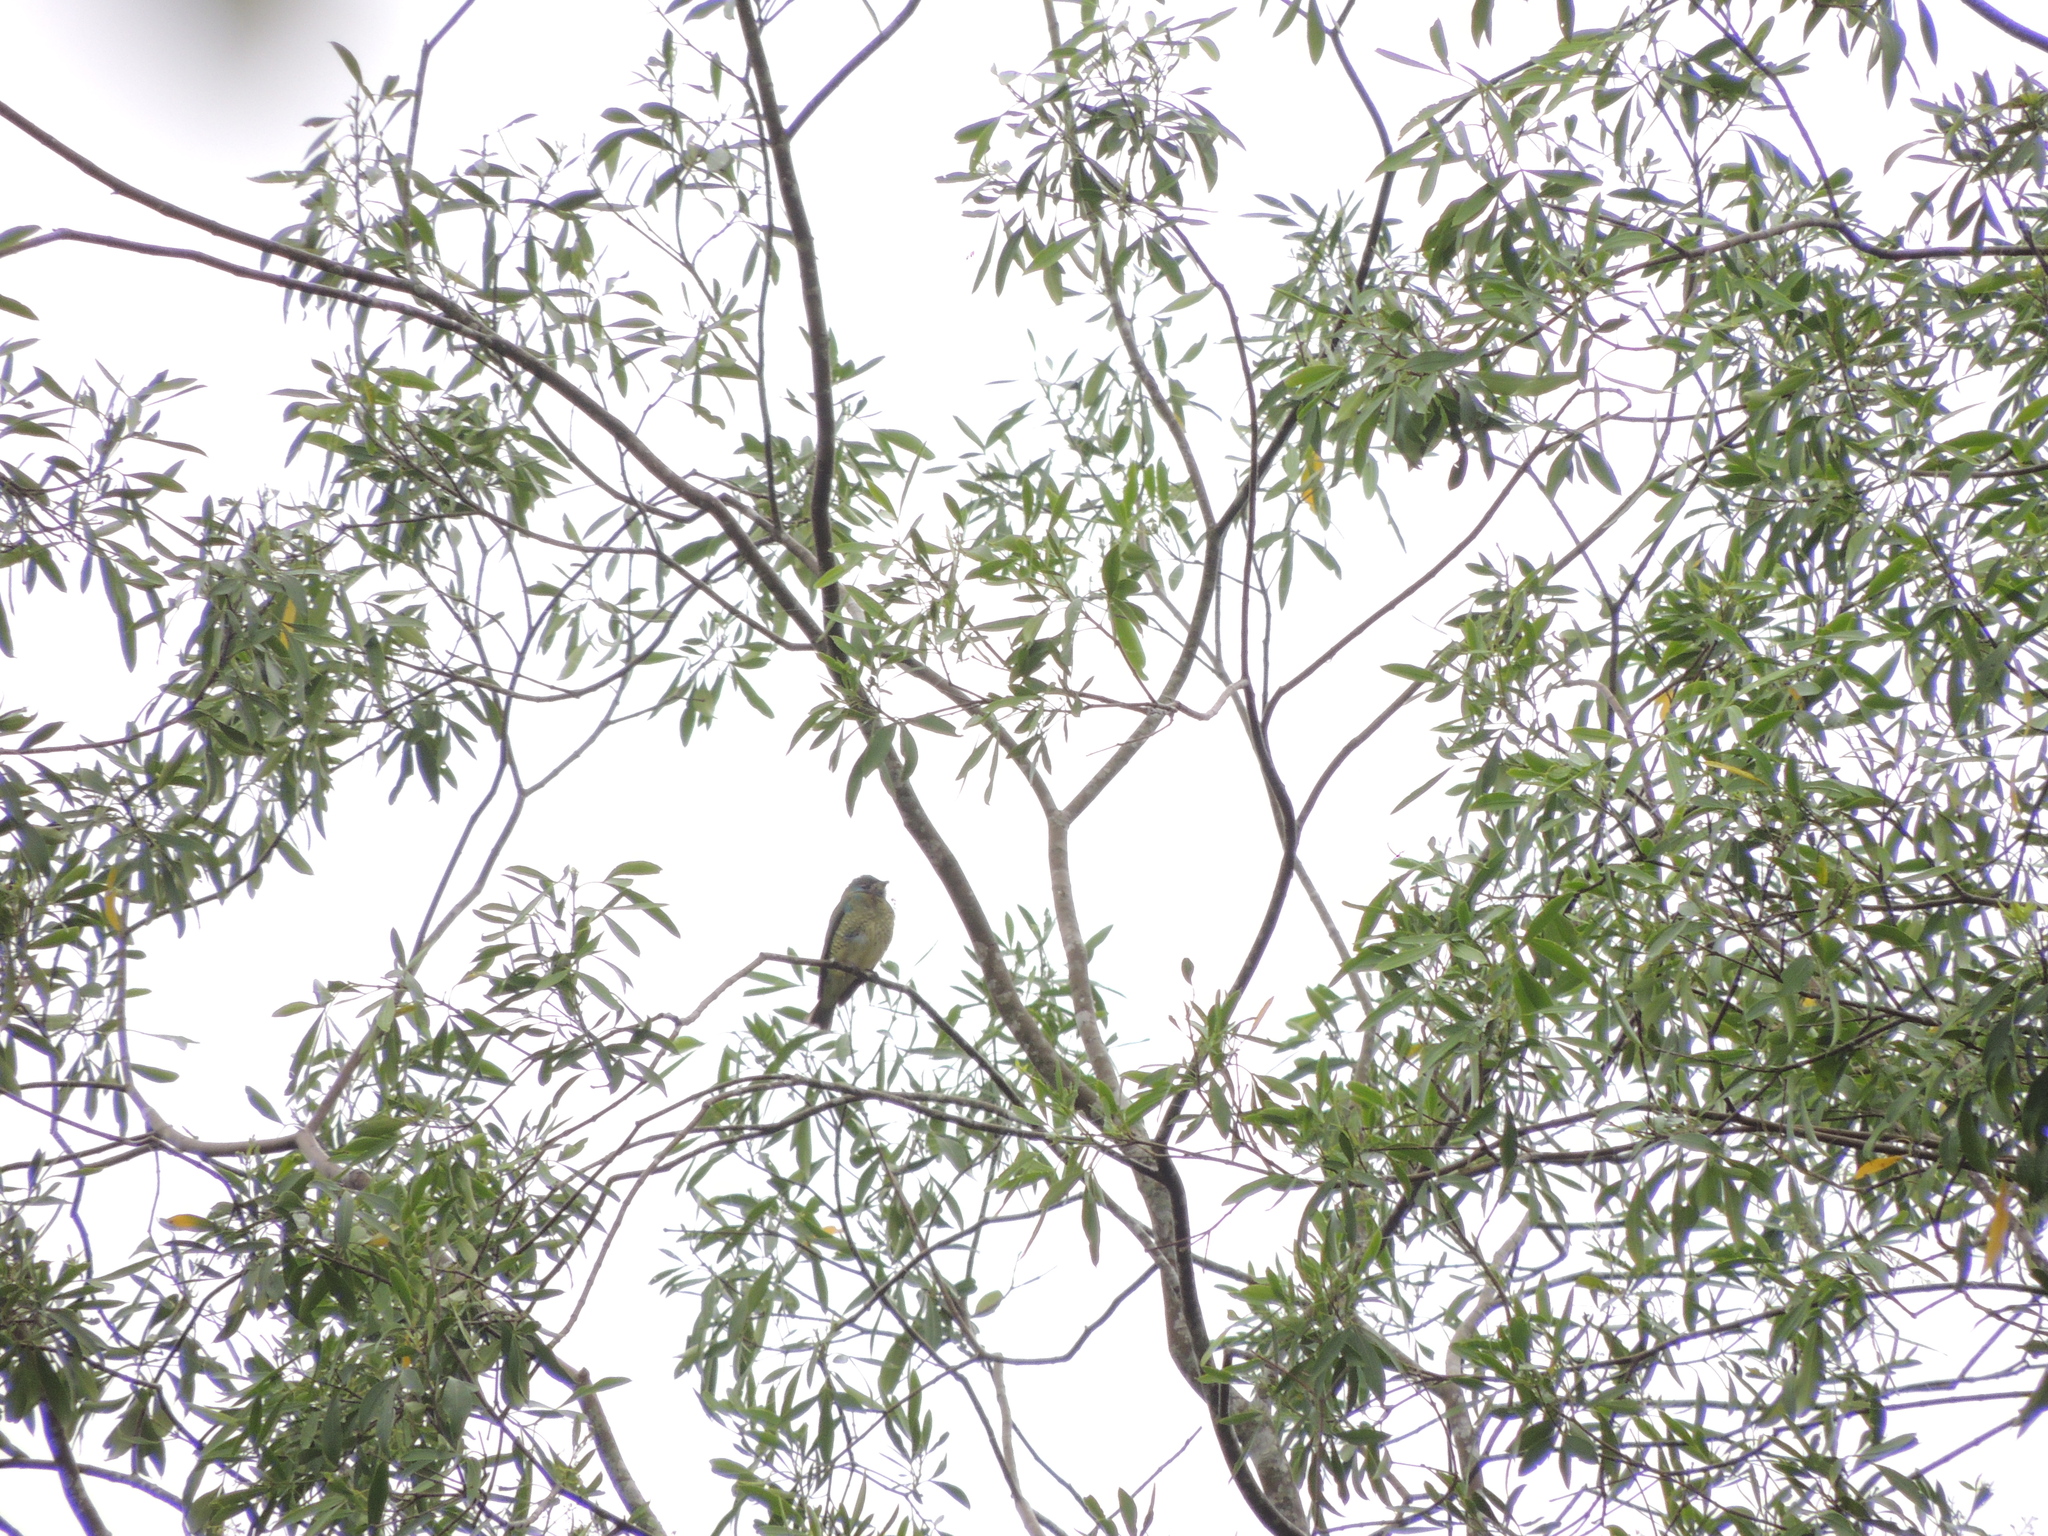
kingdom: Animalia
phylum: Chordata
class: Aves
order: Passeriformes
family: Thraupidae
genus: Tersina
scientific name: Tersina viridis
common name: Swallow tanager
